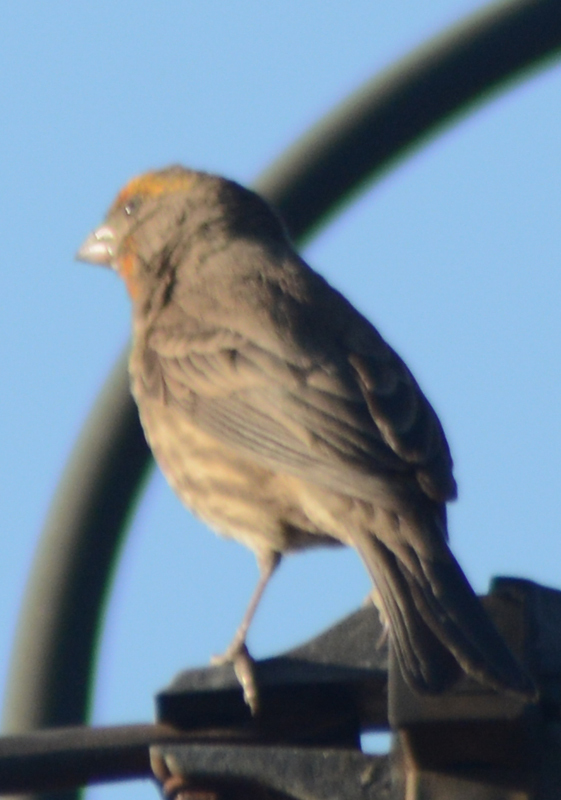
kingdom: Animalia
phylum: Chordata
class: Aves
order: Passeriformes
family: Fringillidae
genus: Haemorhous
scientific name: Haemorhous mexicanus
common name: House finch
